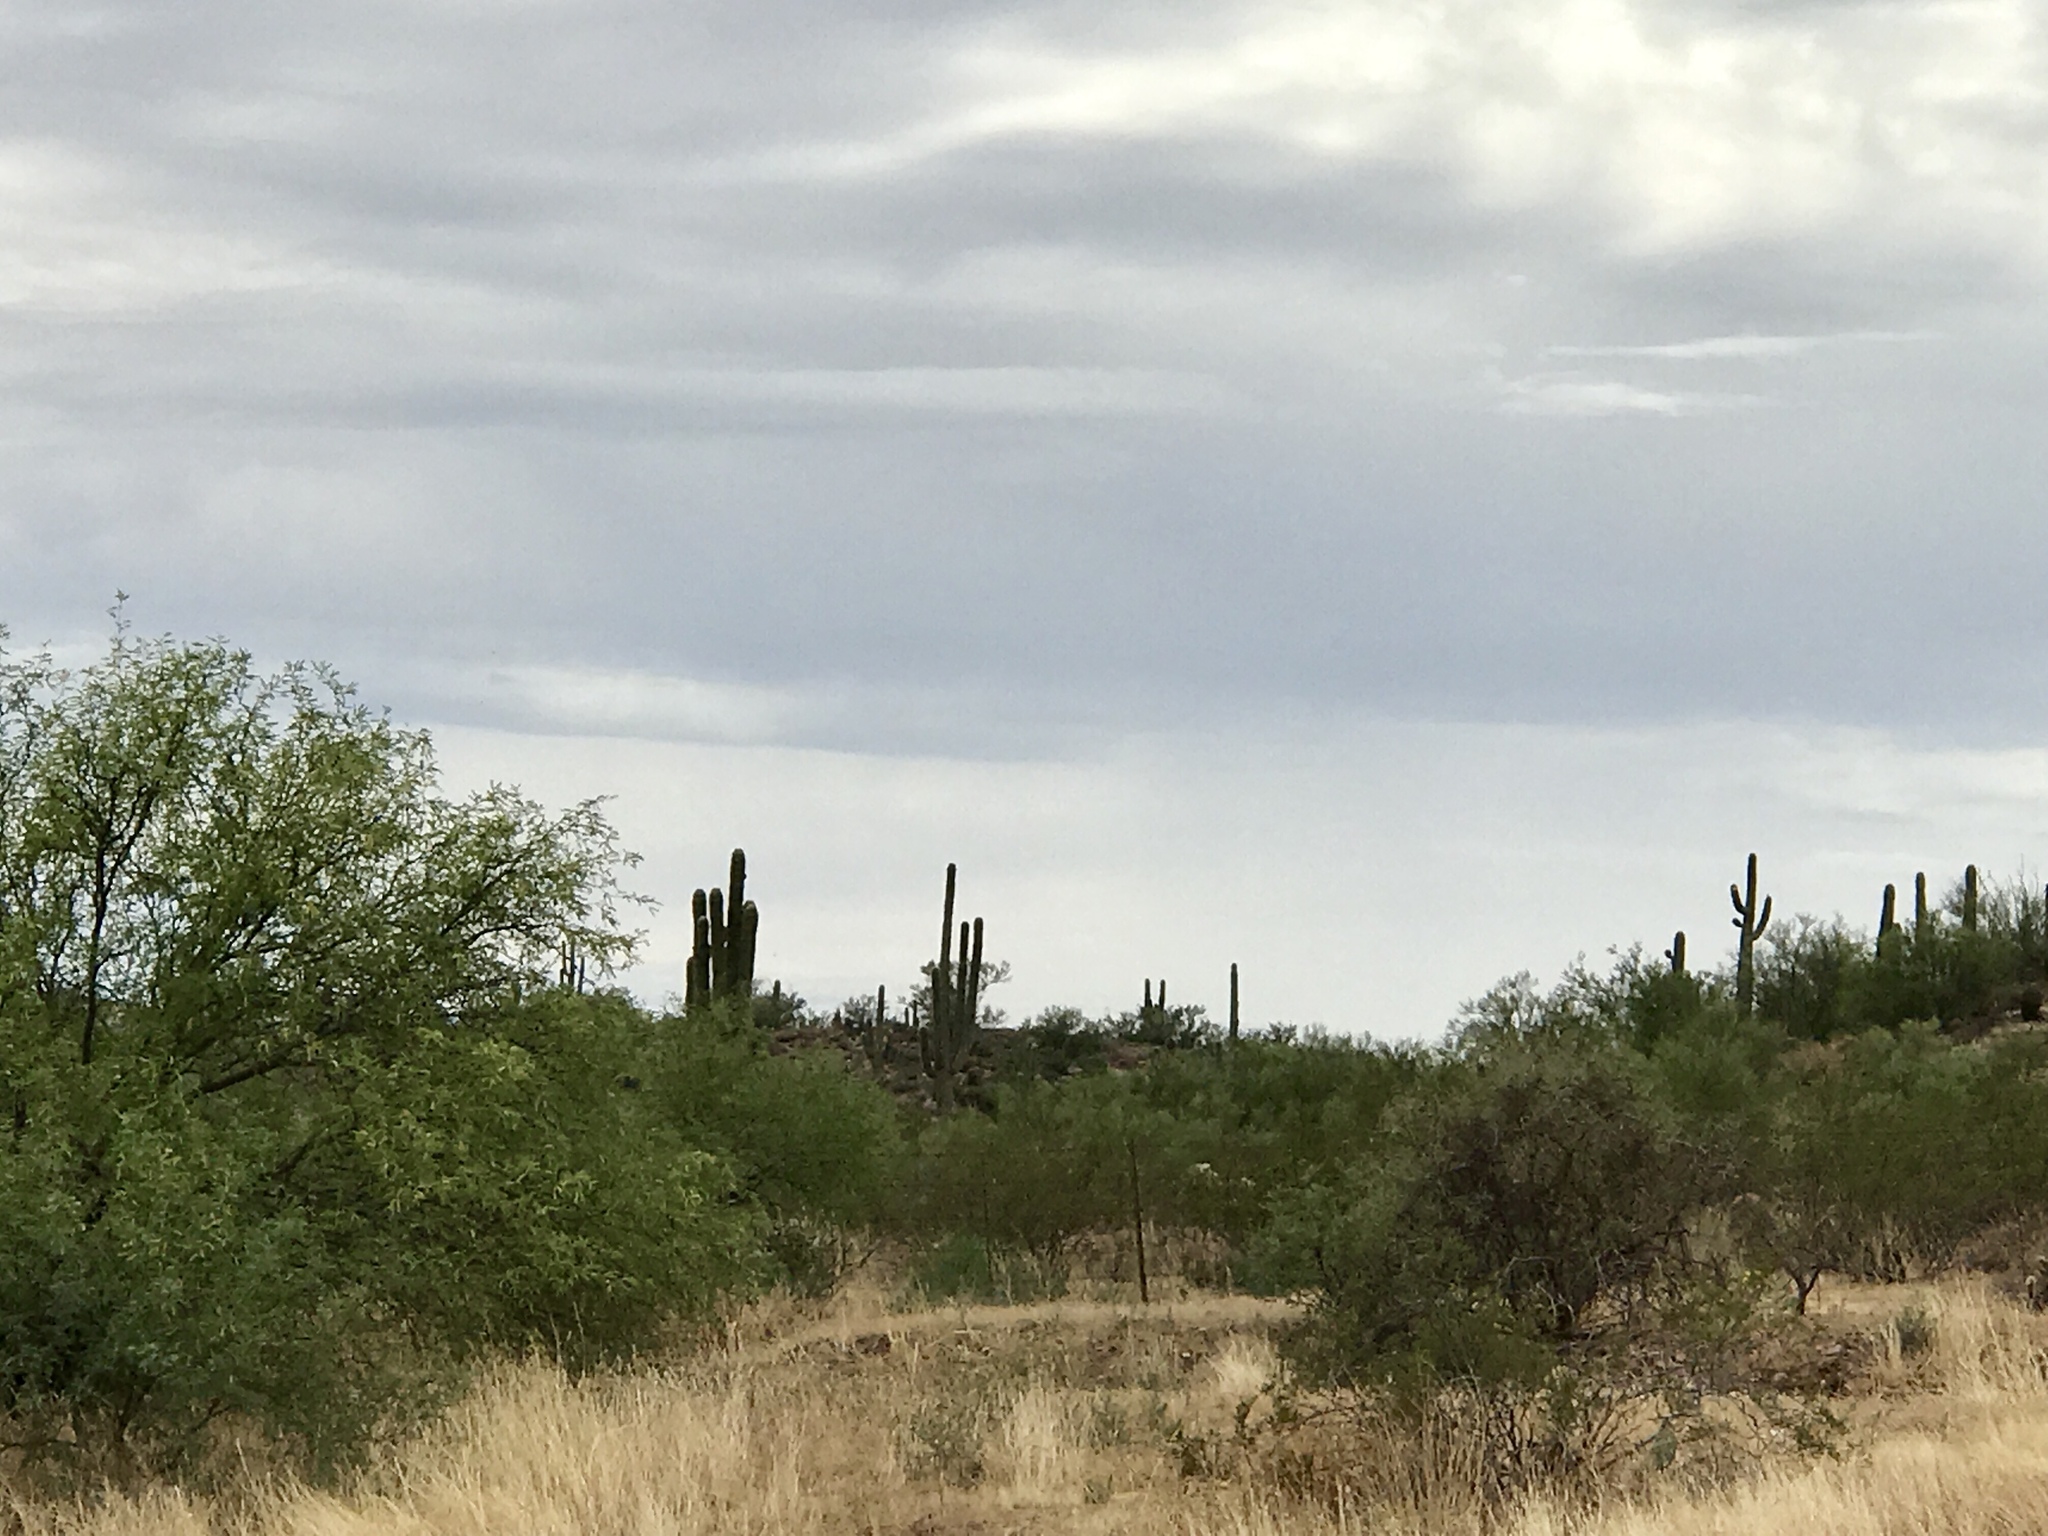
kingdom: Plantae
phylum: Tracheophyta
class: Magnoliopsida
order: Caryophyllales
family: Cactaceae
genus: Carnegiea
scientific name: Carnegiea gigantea
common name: Saguaro
